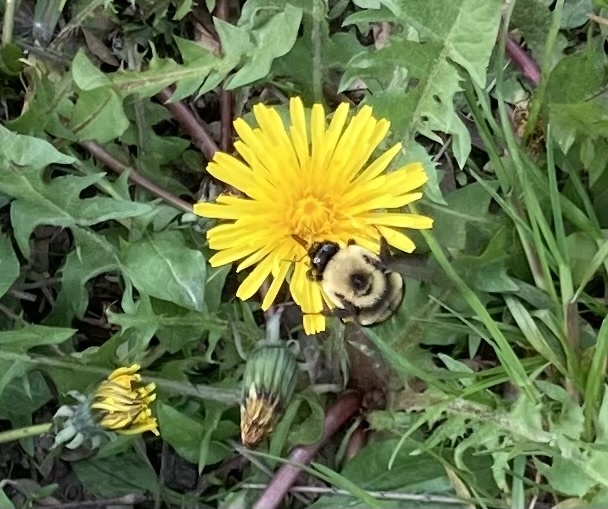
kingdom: Animalia
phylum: Arthropoda
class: Insecta
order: Hymenoptera
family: Apidae
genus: Bombus
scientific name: Bombus griseocollis
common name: Brown-belted bumble bee
